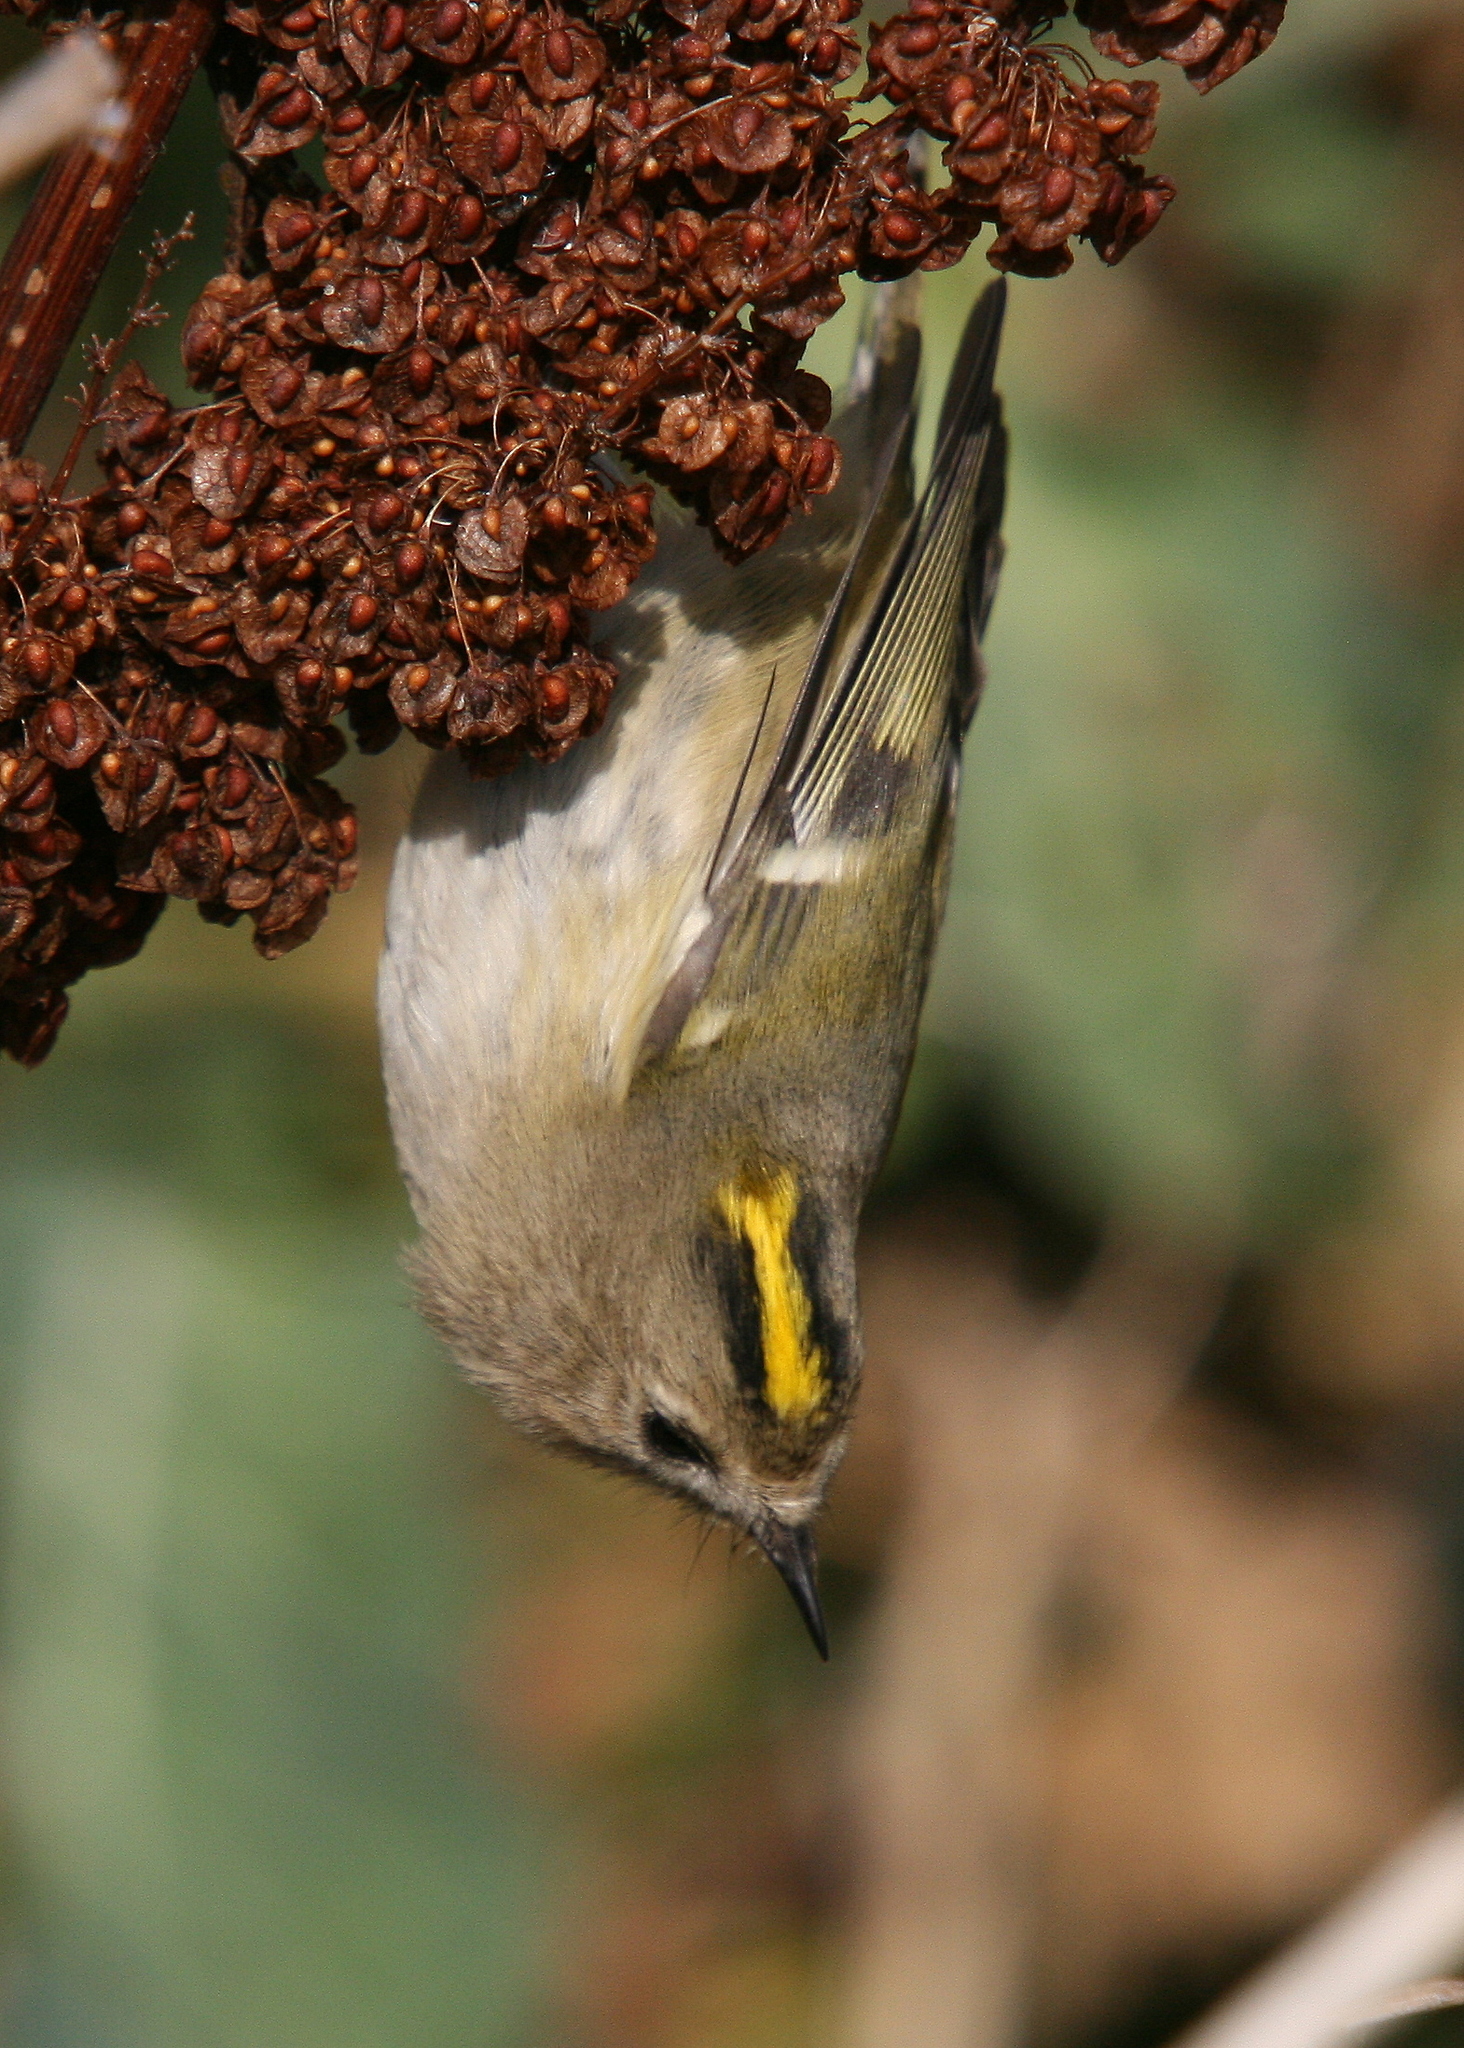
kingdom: Animalia
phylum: Chordata
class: Aves
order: Passeriformes
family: Regulidae
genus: Regulus
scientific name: Regulus regulus
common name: Goldcrest
